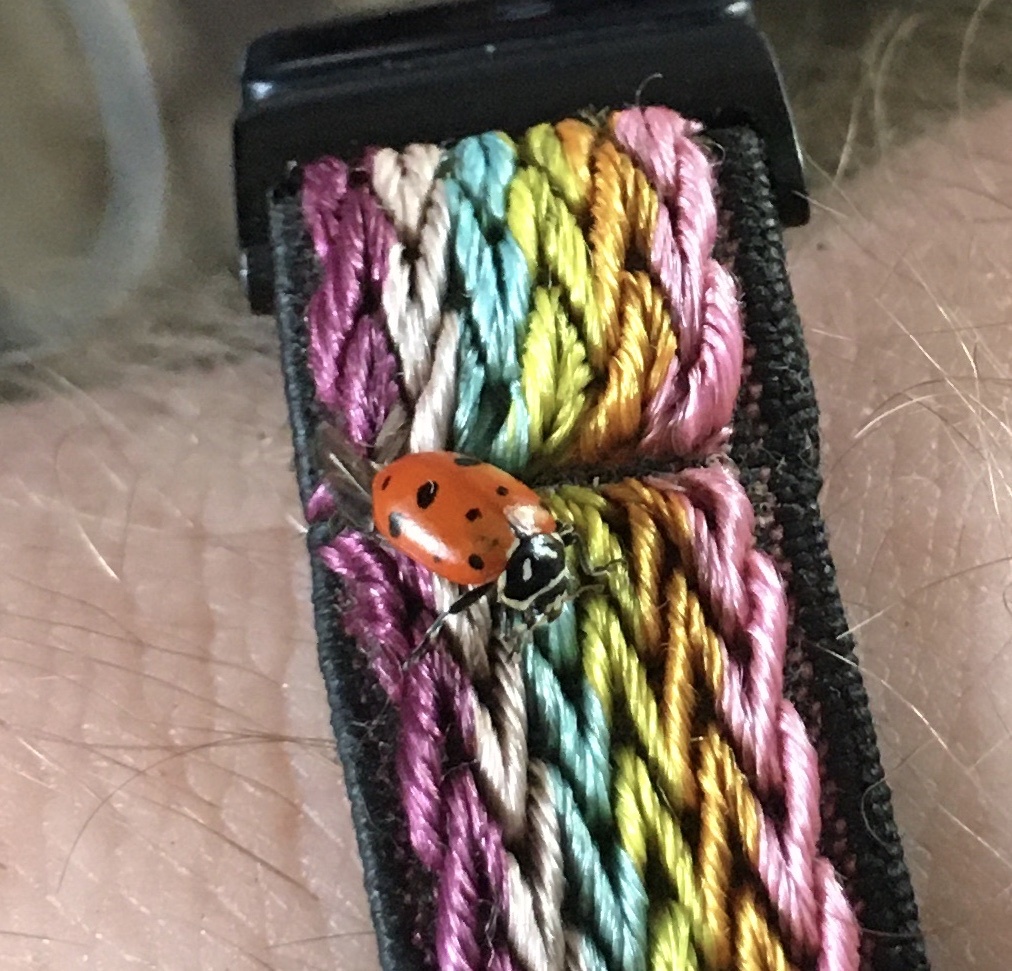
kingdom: Animalia
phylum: Arthropoda
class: Insecta
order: Coleoptera
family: Coccinellidae
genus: Hippodamia
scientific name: Hippodamia convergens
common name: Convergent lady beetle
